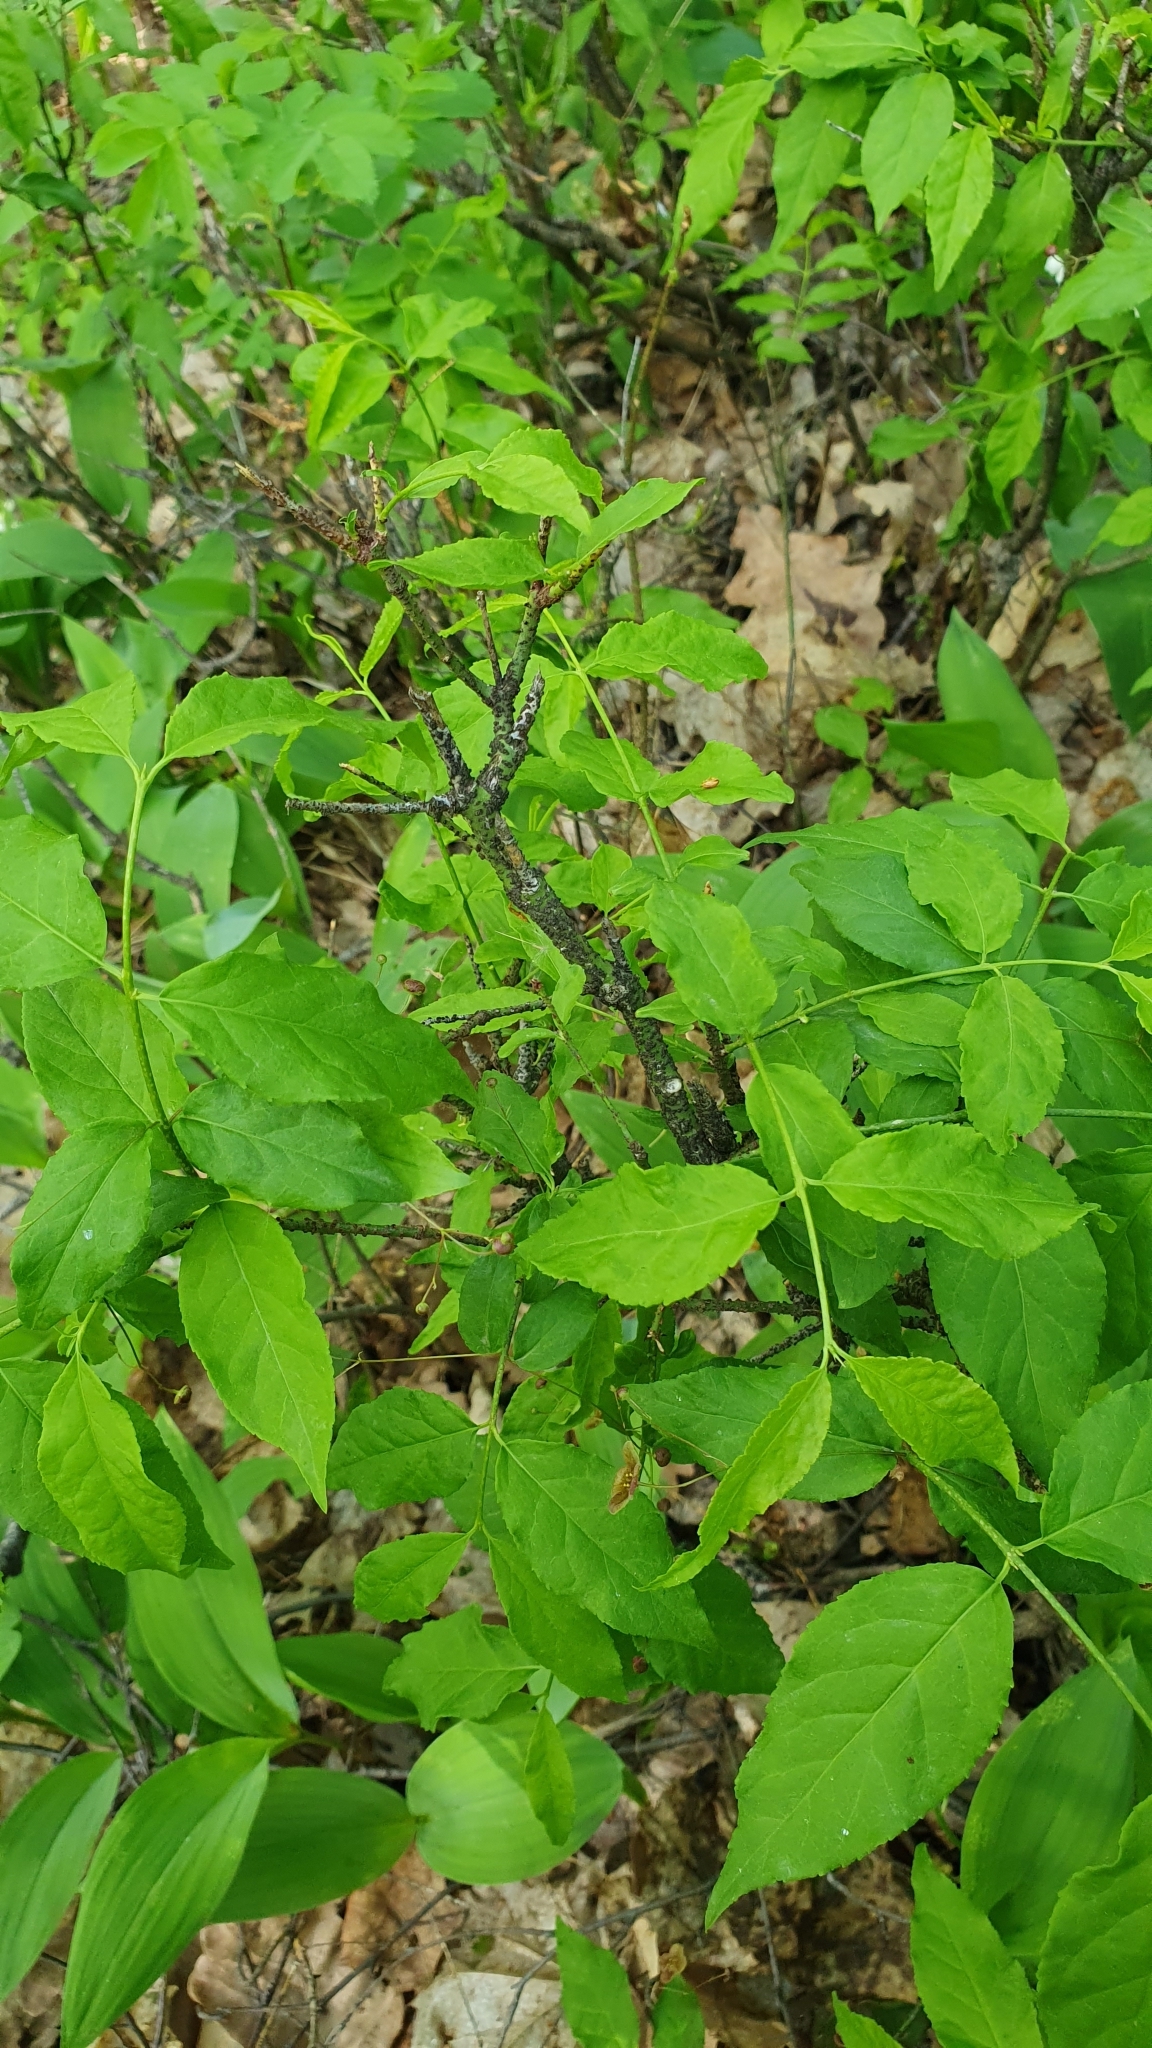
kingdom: Plantae
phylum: Tracheophyta
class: Magnoliopsida
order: Celastrales
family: Celastraceae
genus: Euonymus
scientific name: Euonymus verrucosus
